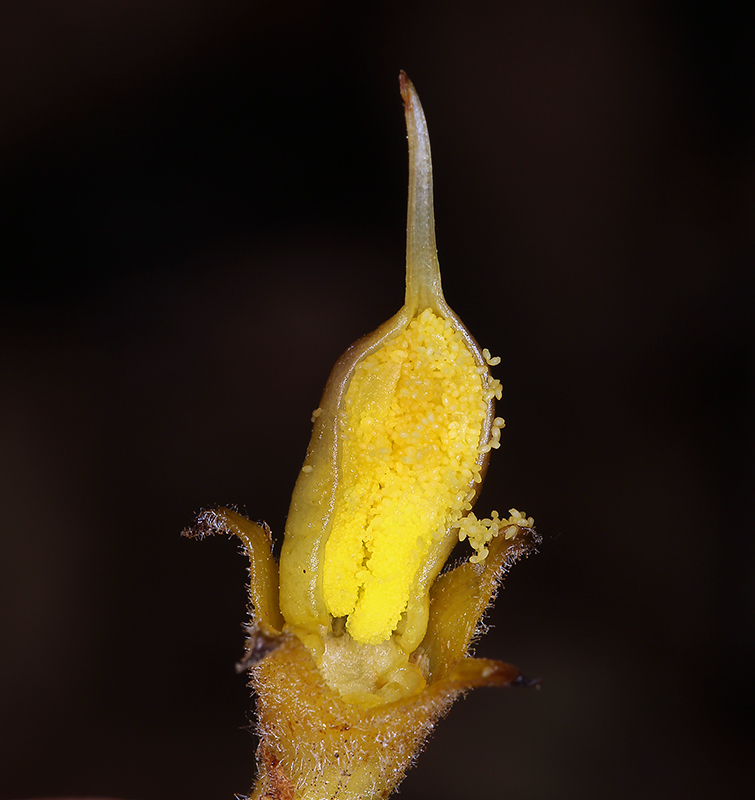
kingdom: Plantae
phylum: Tracheophyta
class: Magnoliopsida
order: Lamiales
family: Orobanchaceae
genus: Aphyllon
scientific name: Aphyllon franciscanum
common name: San francisco broomrape
